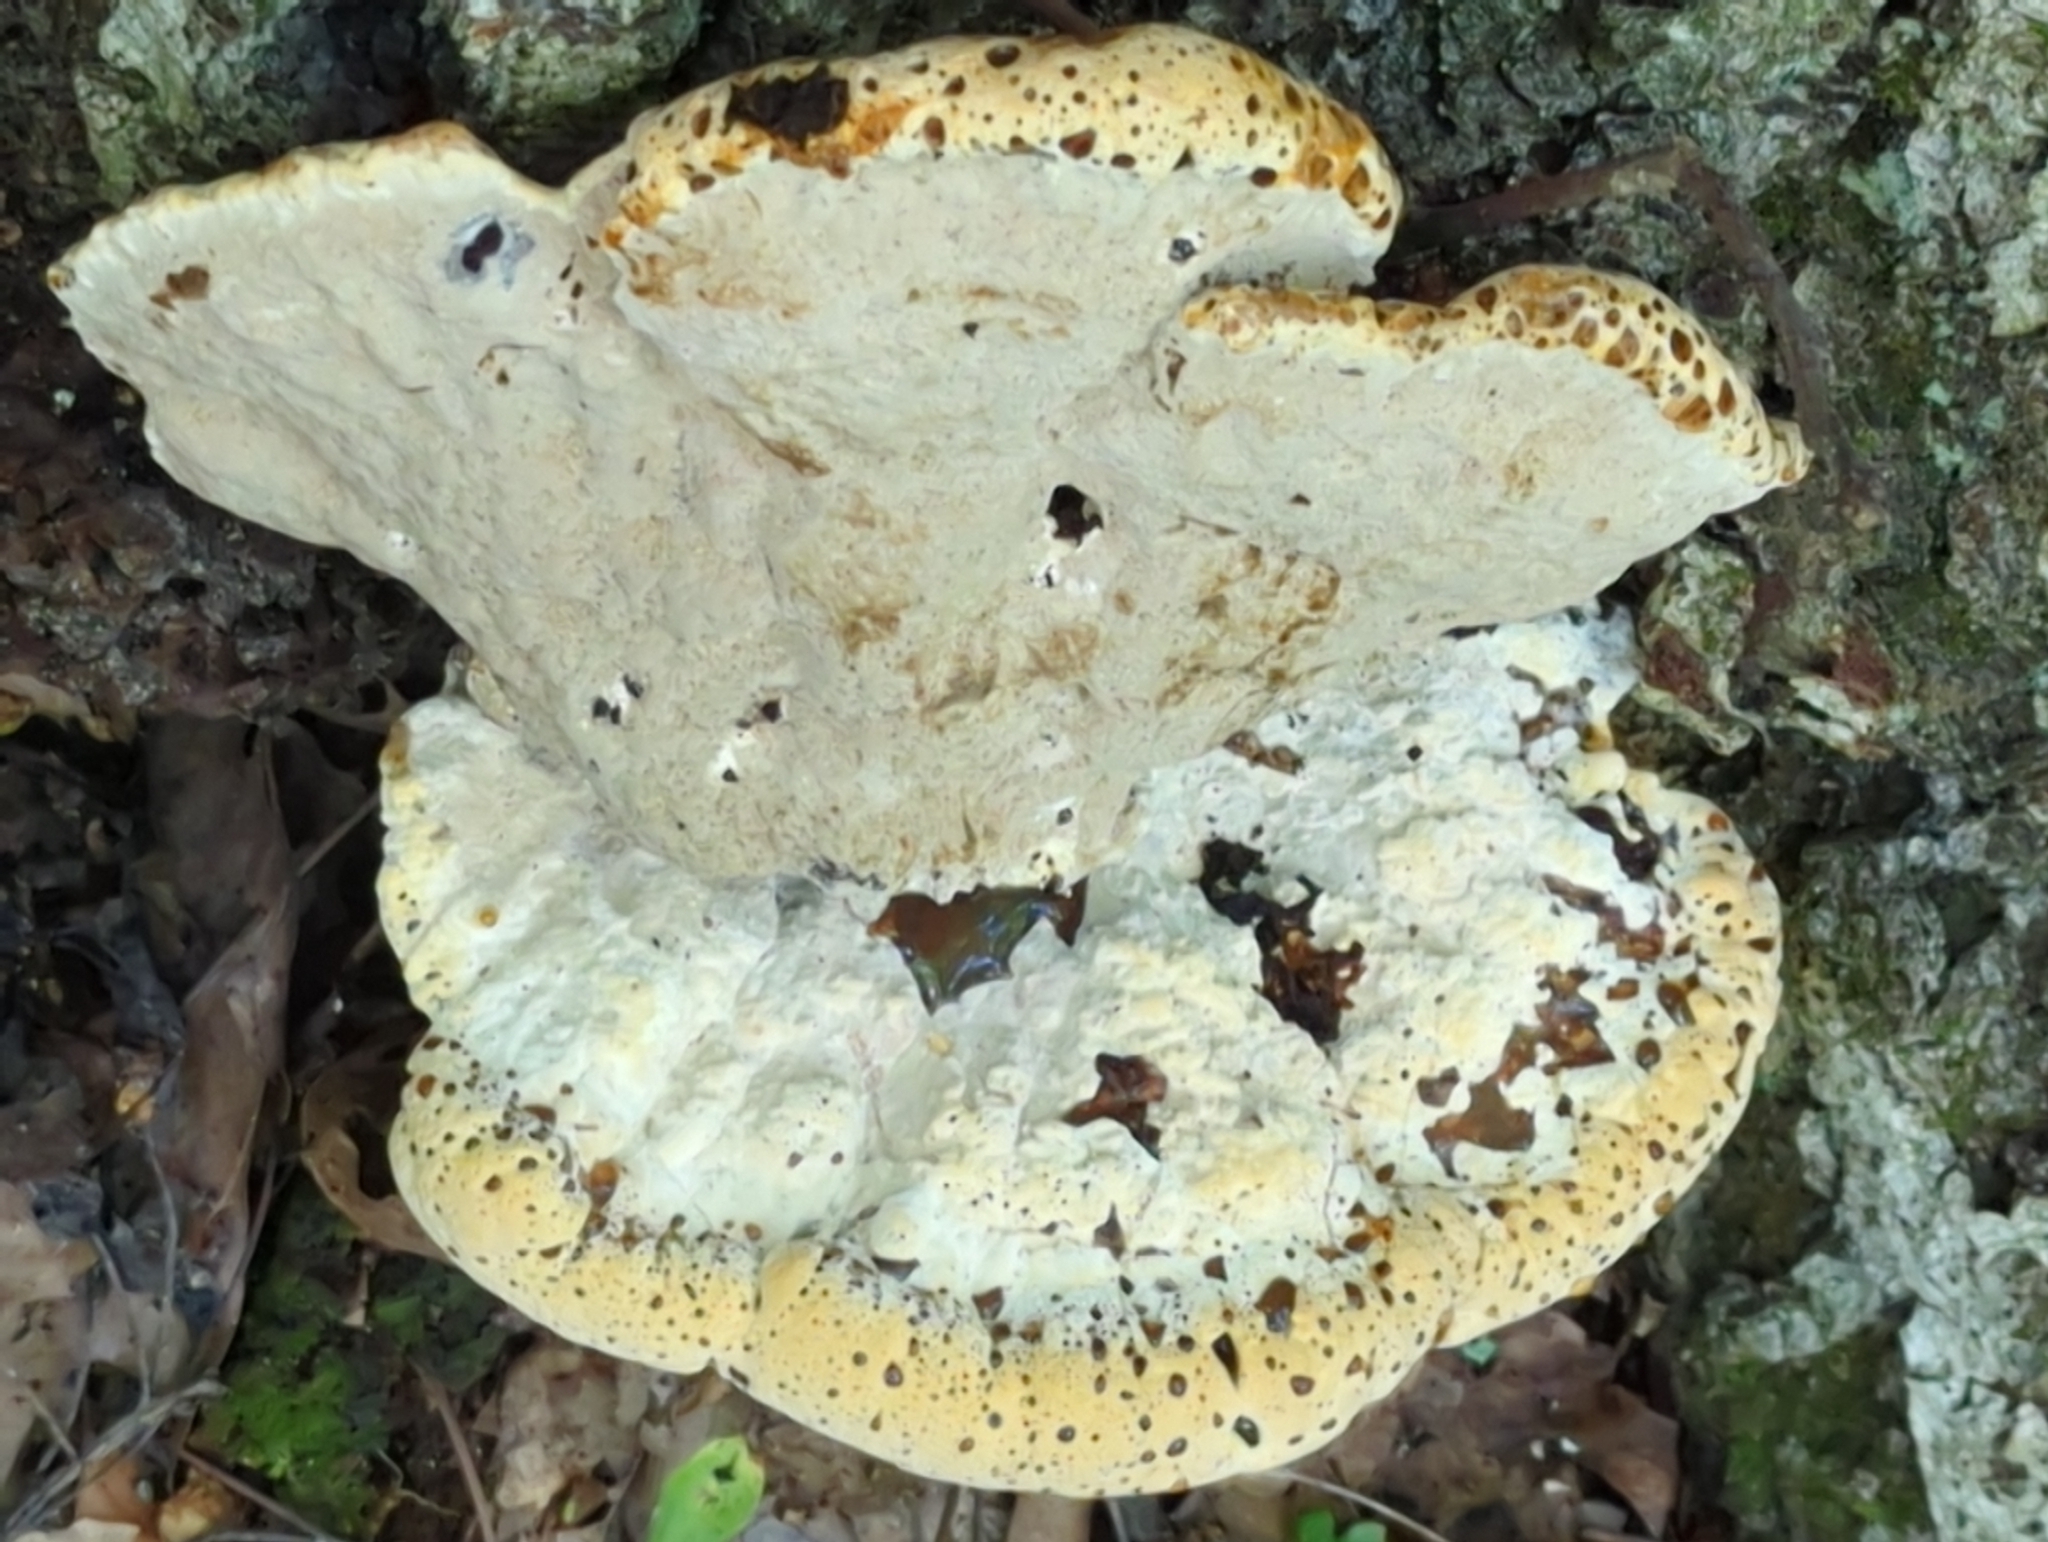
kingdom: Fungi
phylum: Basidiomycota
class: Agaricomycetes
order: Hymenochaetales
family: Hymenochaetaceae
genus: Pseudoinonotus
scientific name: Pseudoinonotus dryadeus
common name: Oak bracket
